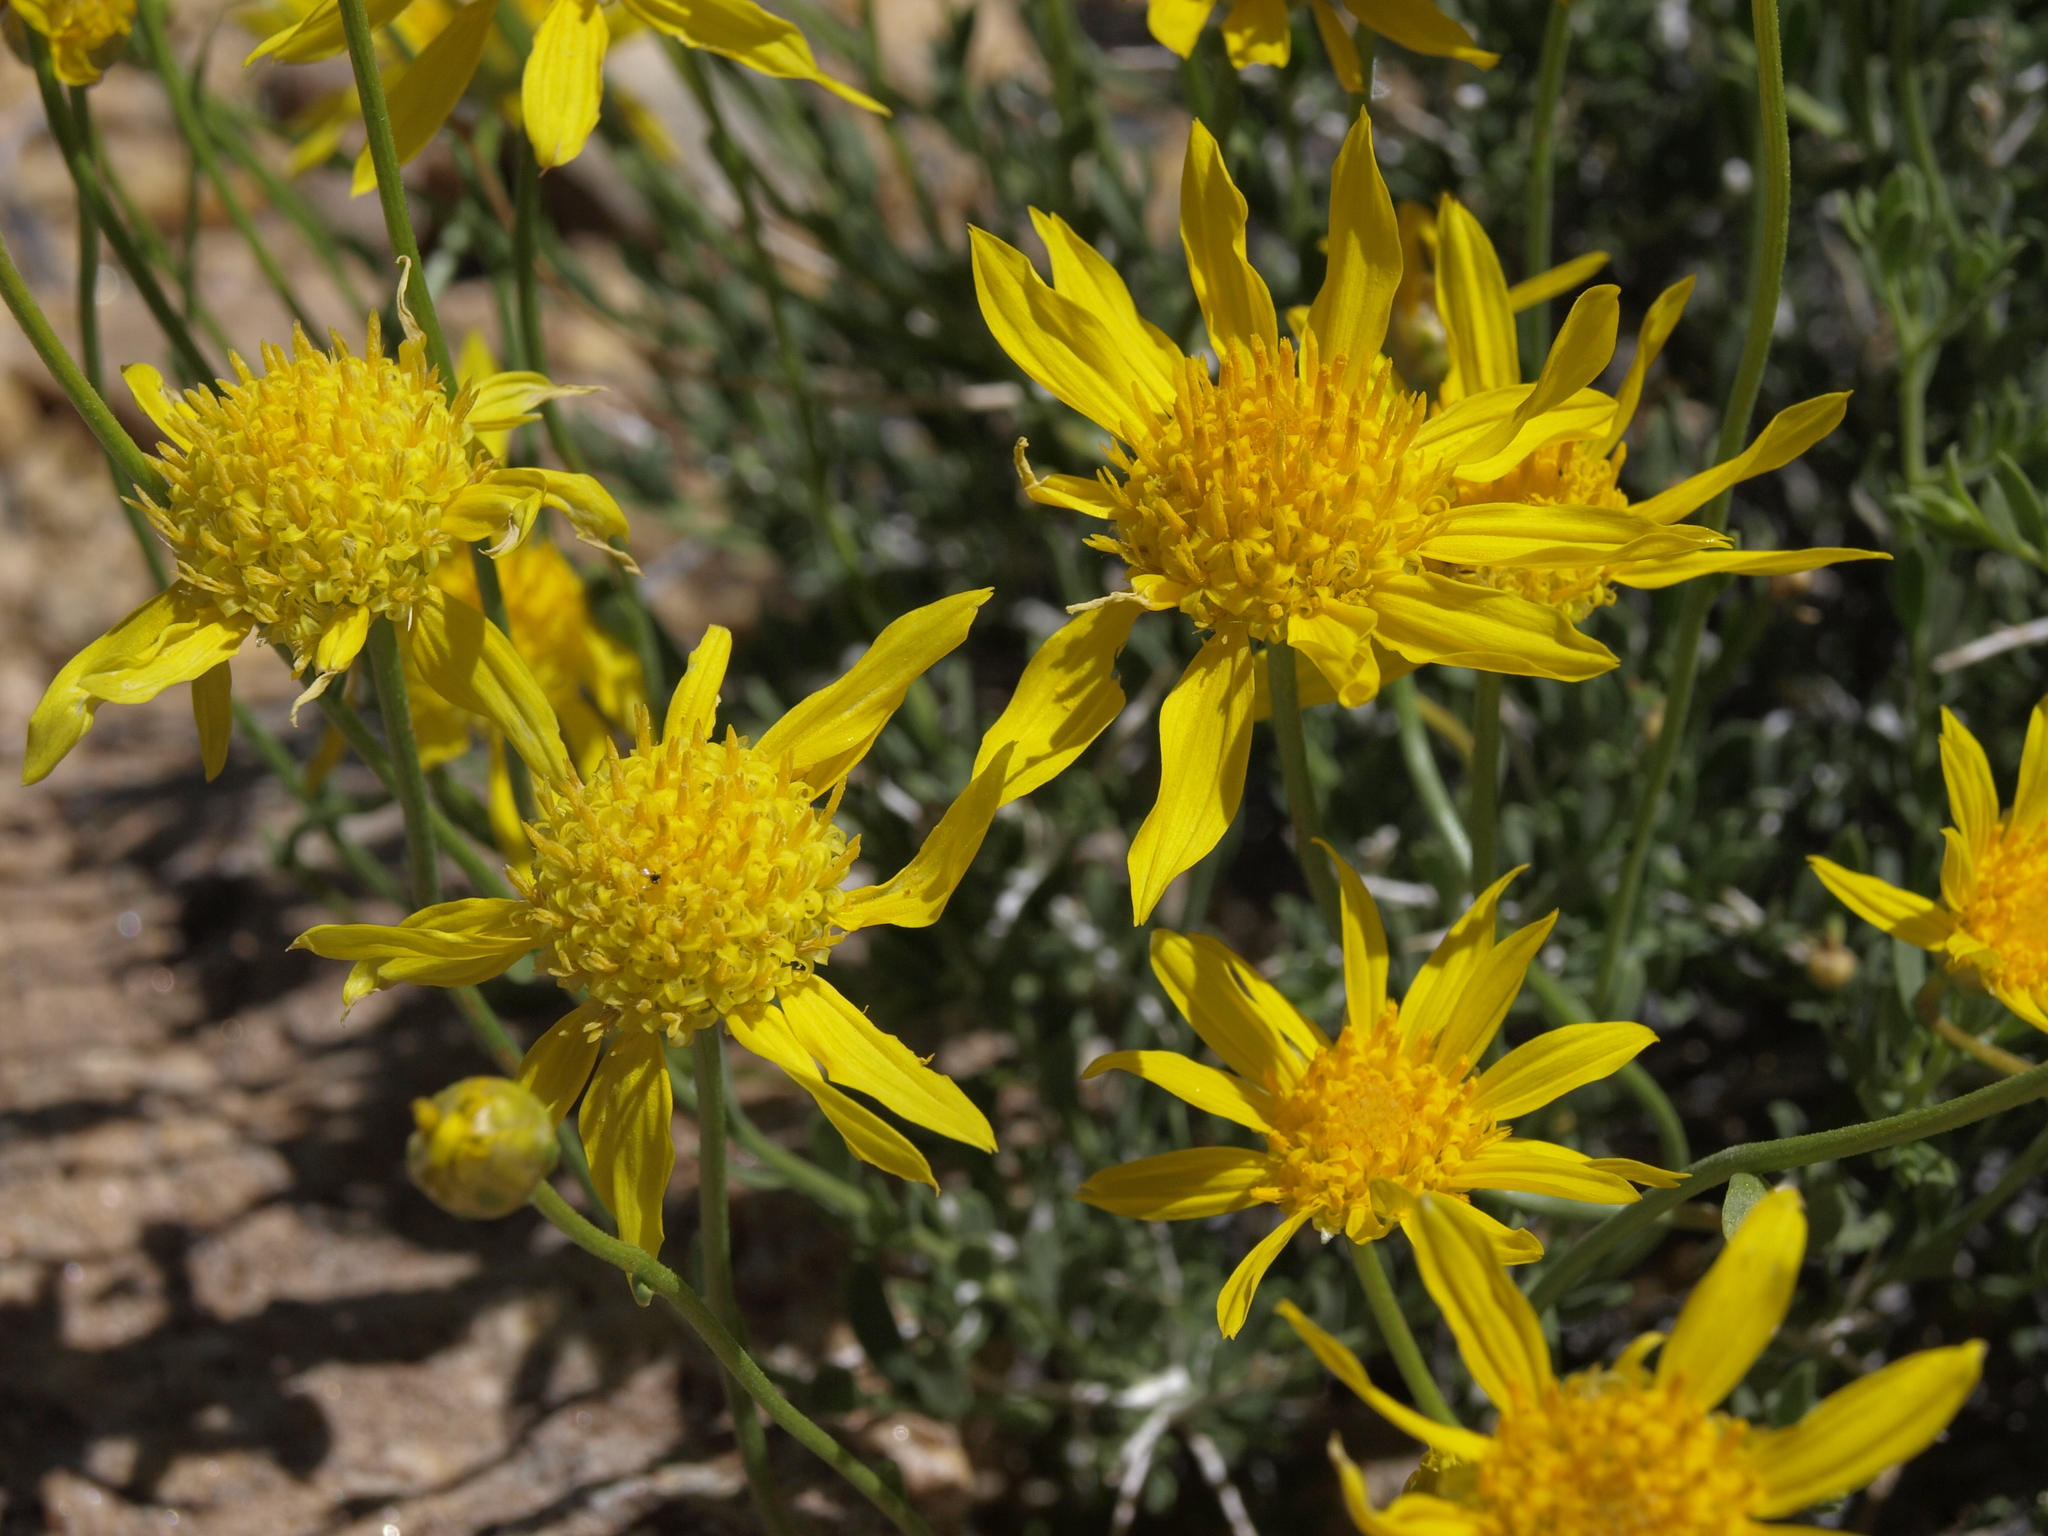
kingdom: Plantae
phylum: Tracheophyta
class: Magnoliopsida
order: Asterales
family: Asteraceae
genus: Acamptopappus
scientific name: Acamptopappus shockleyi
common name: Shockley's goldenhead
